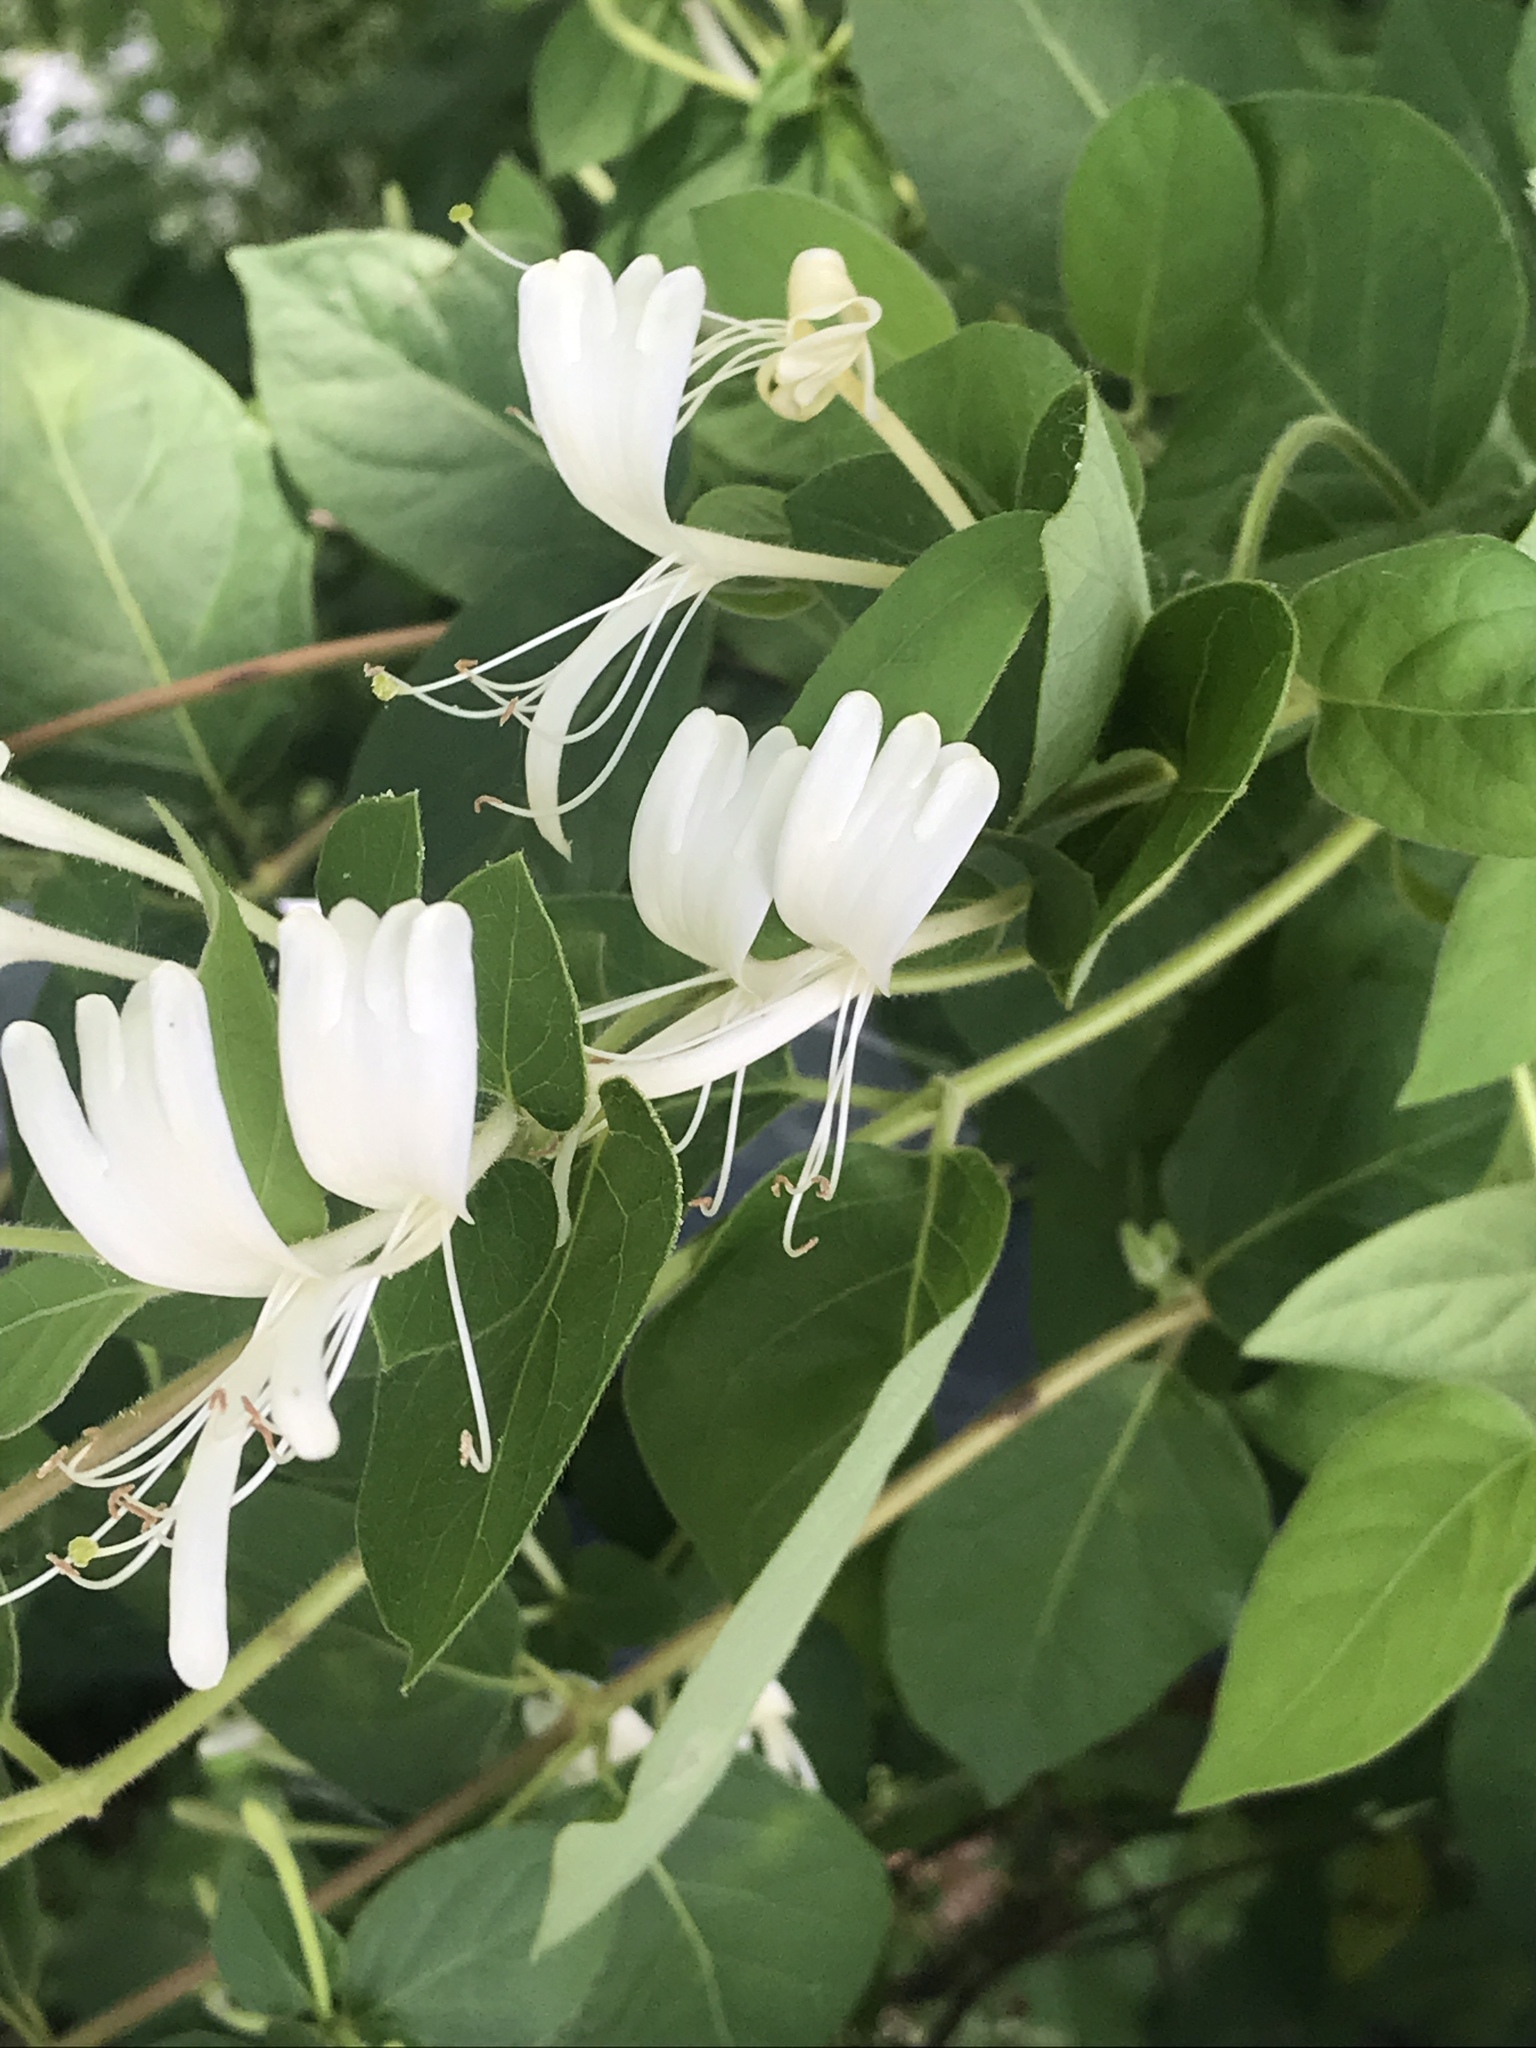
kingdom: Plantae
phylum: Tracheophyta
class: Magnoliopsida
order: Dipsacales
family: Caprifoliaceae
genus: Lonicera
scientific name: Lonicera japonica
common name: Japanese honeysuckle
